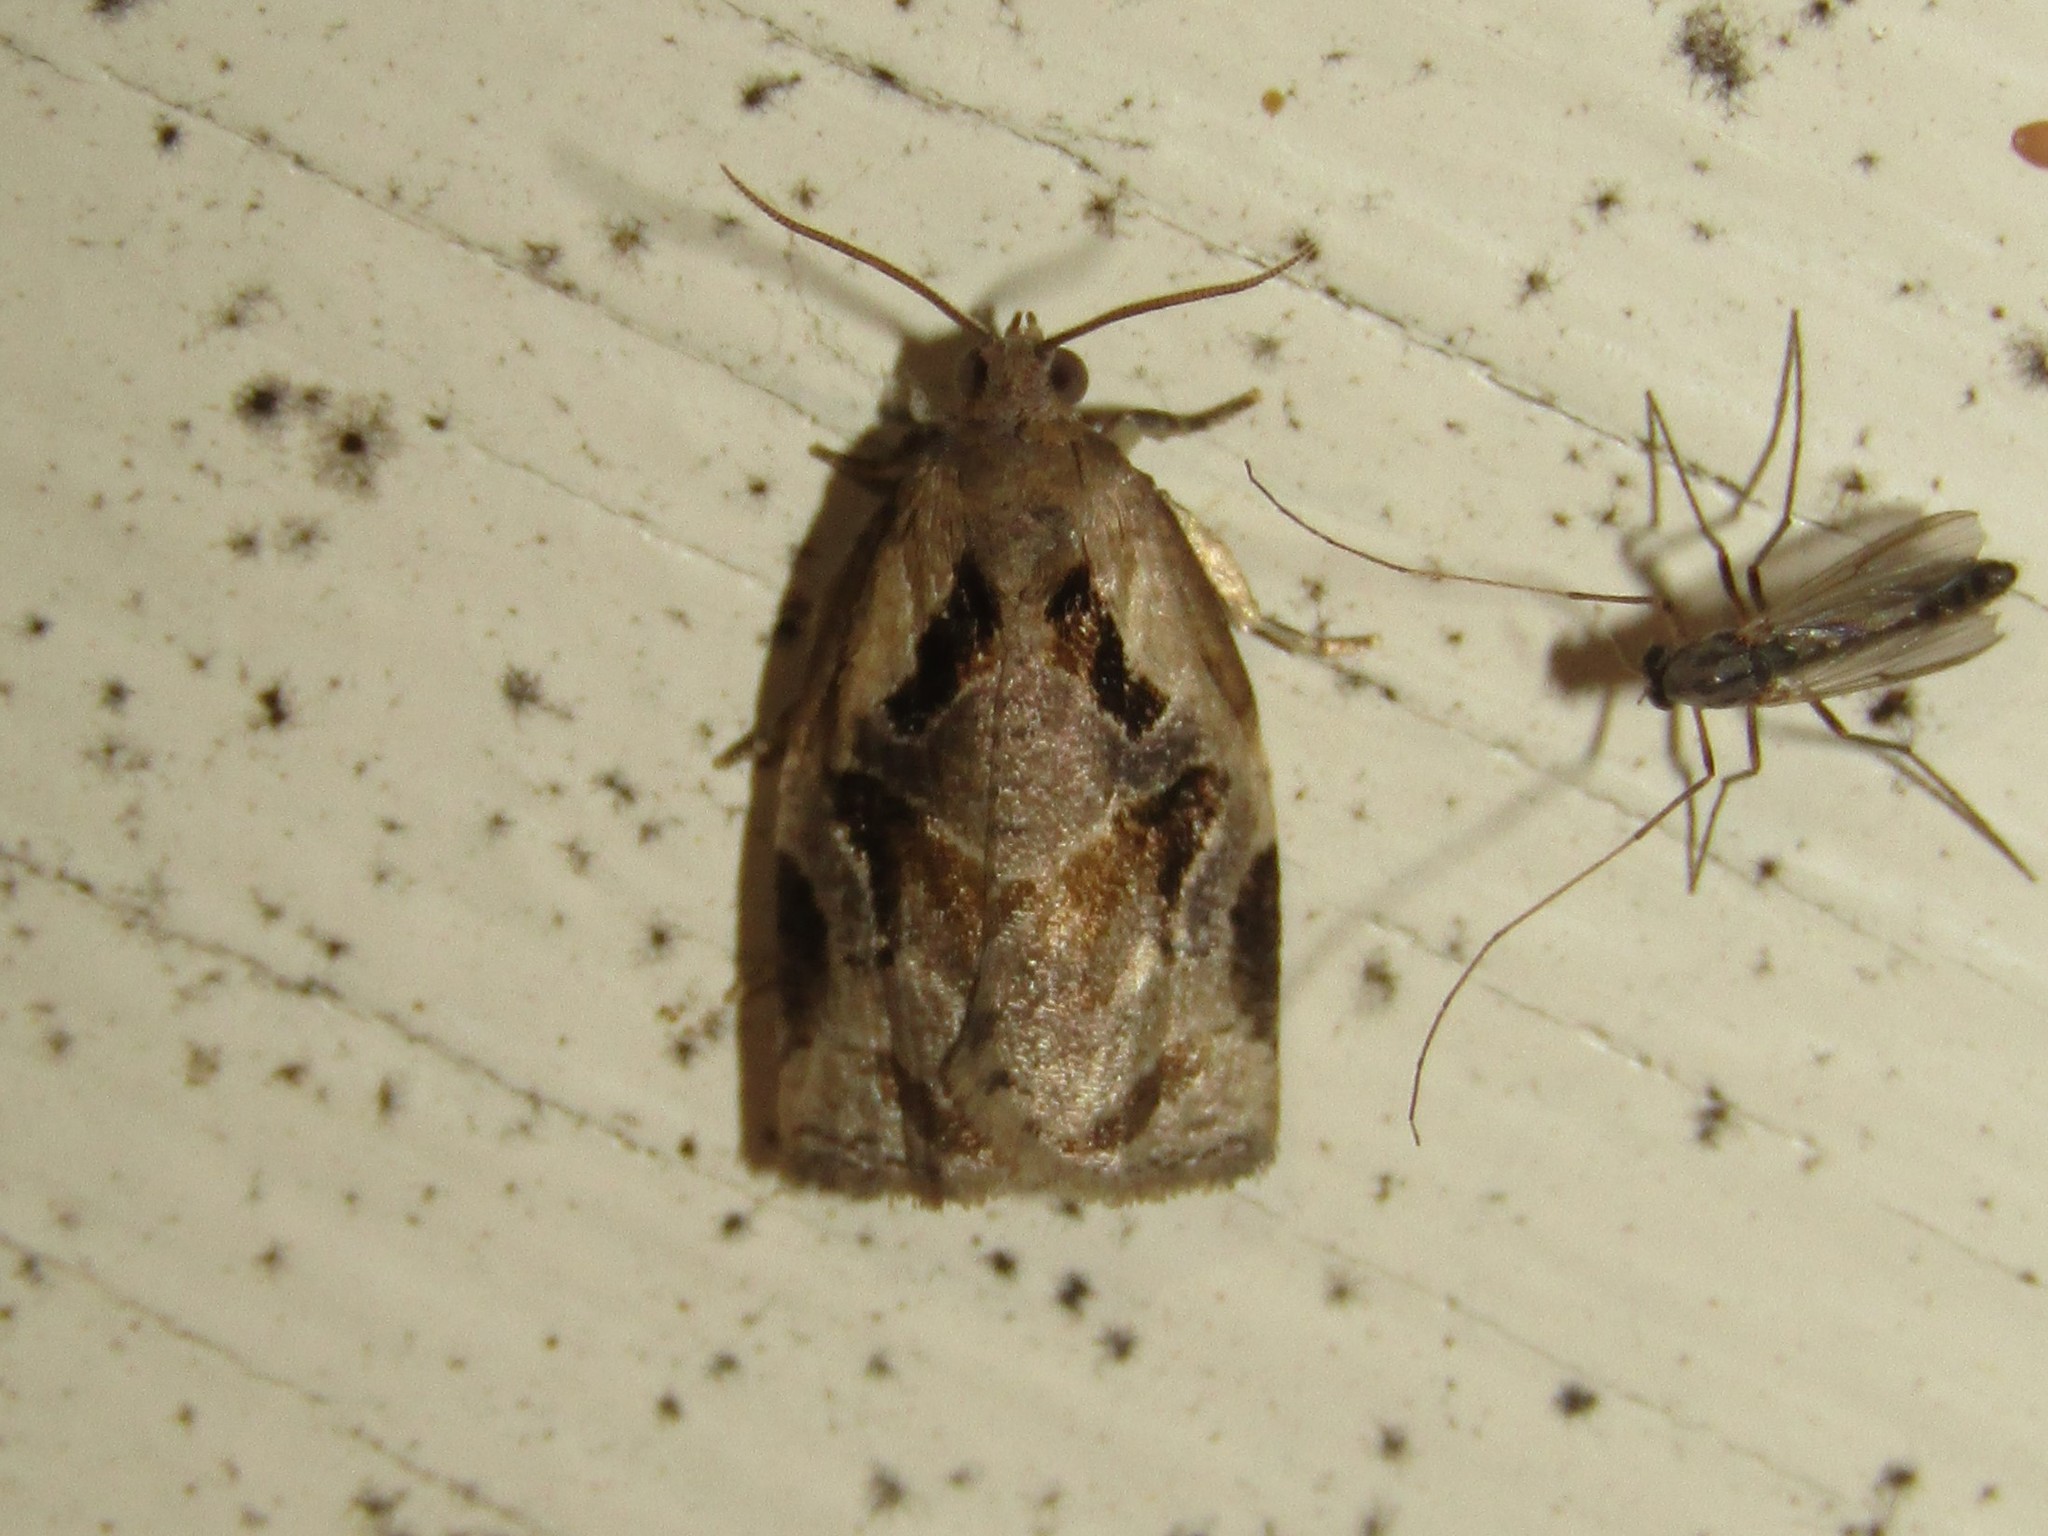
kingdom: Animalia
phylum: Arthropoda
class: Insecta
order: Lepidoptera
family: Tortricidae
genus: Archips
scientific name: Archips grisea
